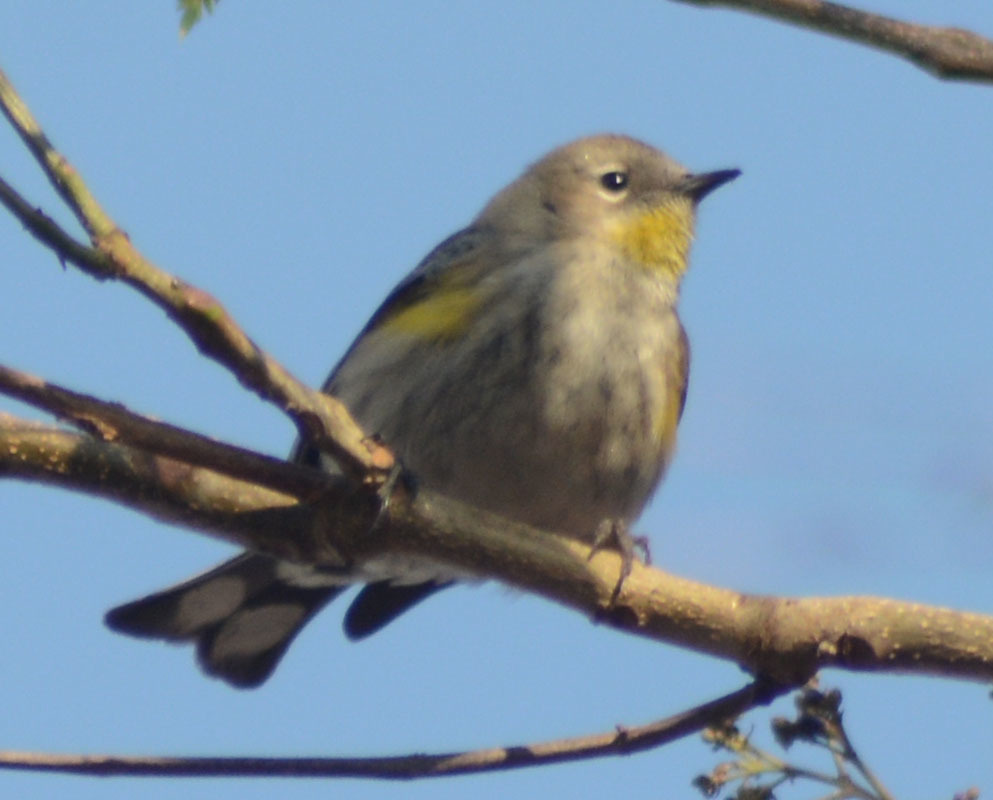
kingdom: Animalia
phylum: Chordata
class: Aves
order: Passeriformes
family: Parulidae
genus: Setophaga
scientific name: Setophaga auduboni
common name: Audubon's warbler
